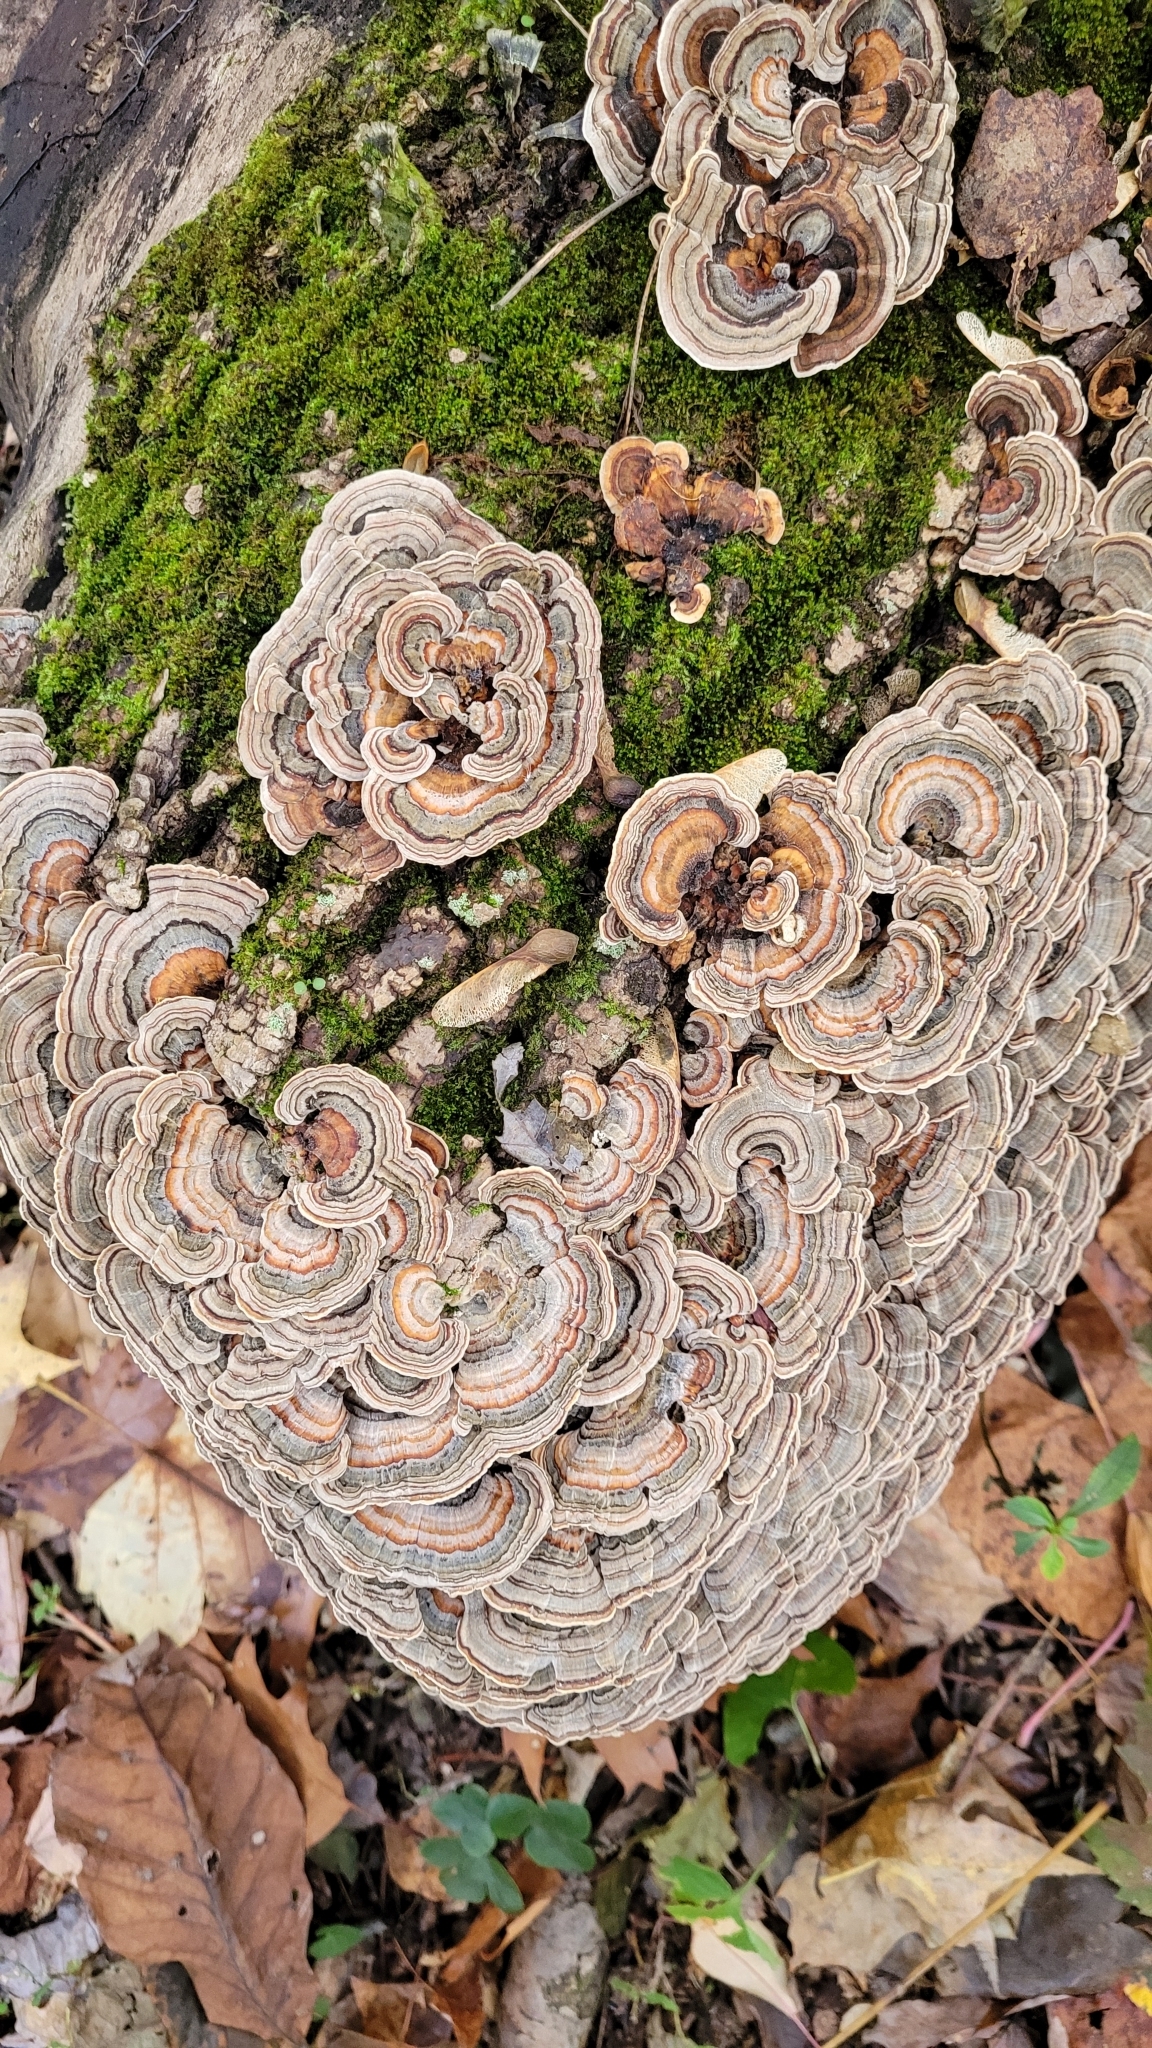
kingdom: Fungi
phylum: Basidiomycota
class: Agaricomycetes
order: Polyporales
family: Polyporaceae
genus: Trametes
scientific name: Trametes versicolor
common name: Turkeytail
